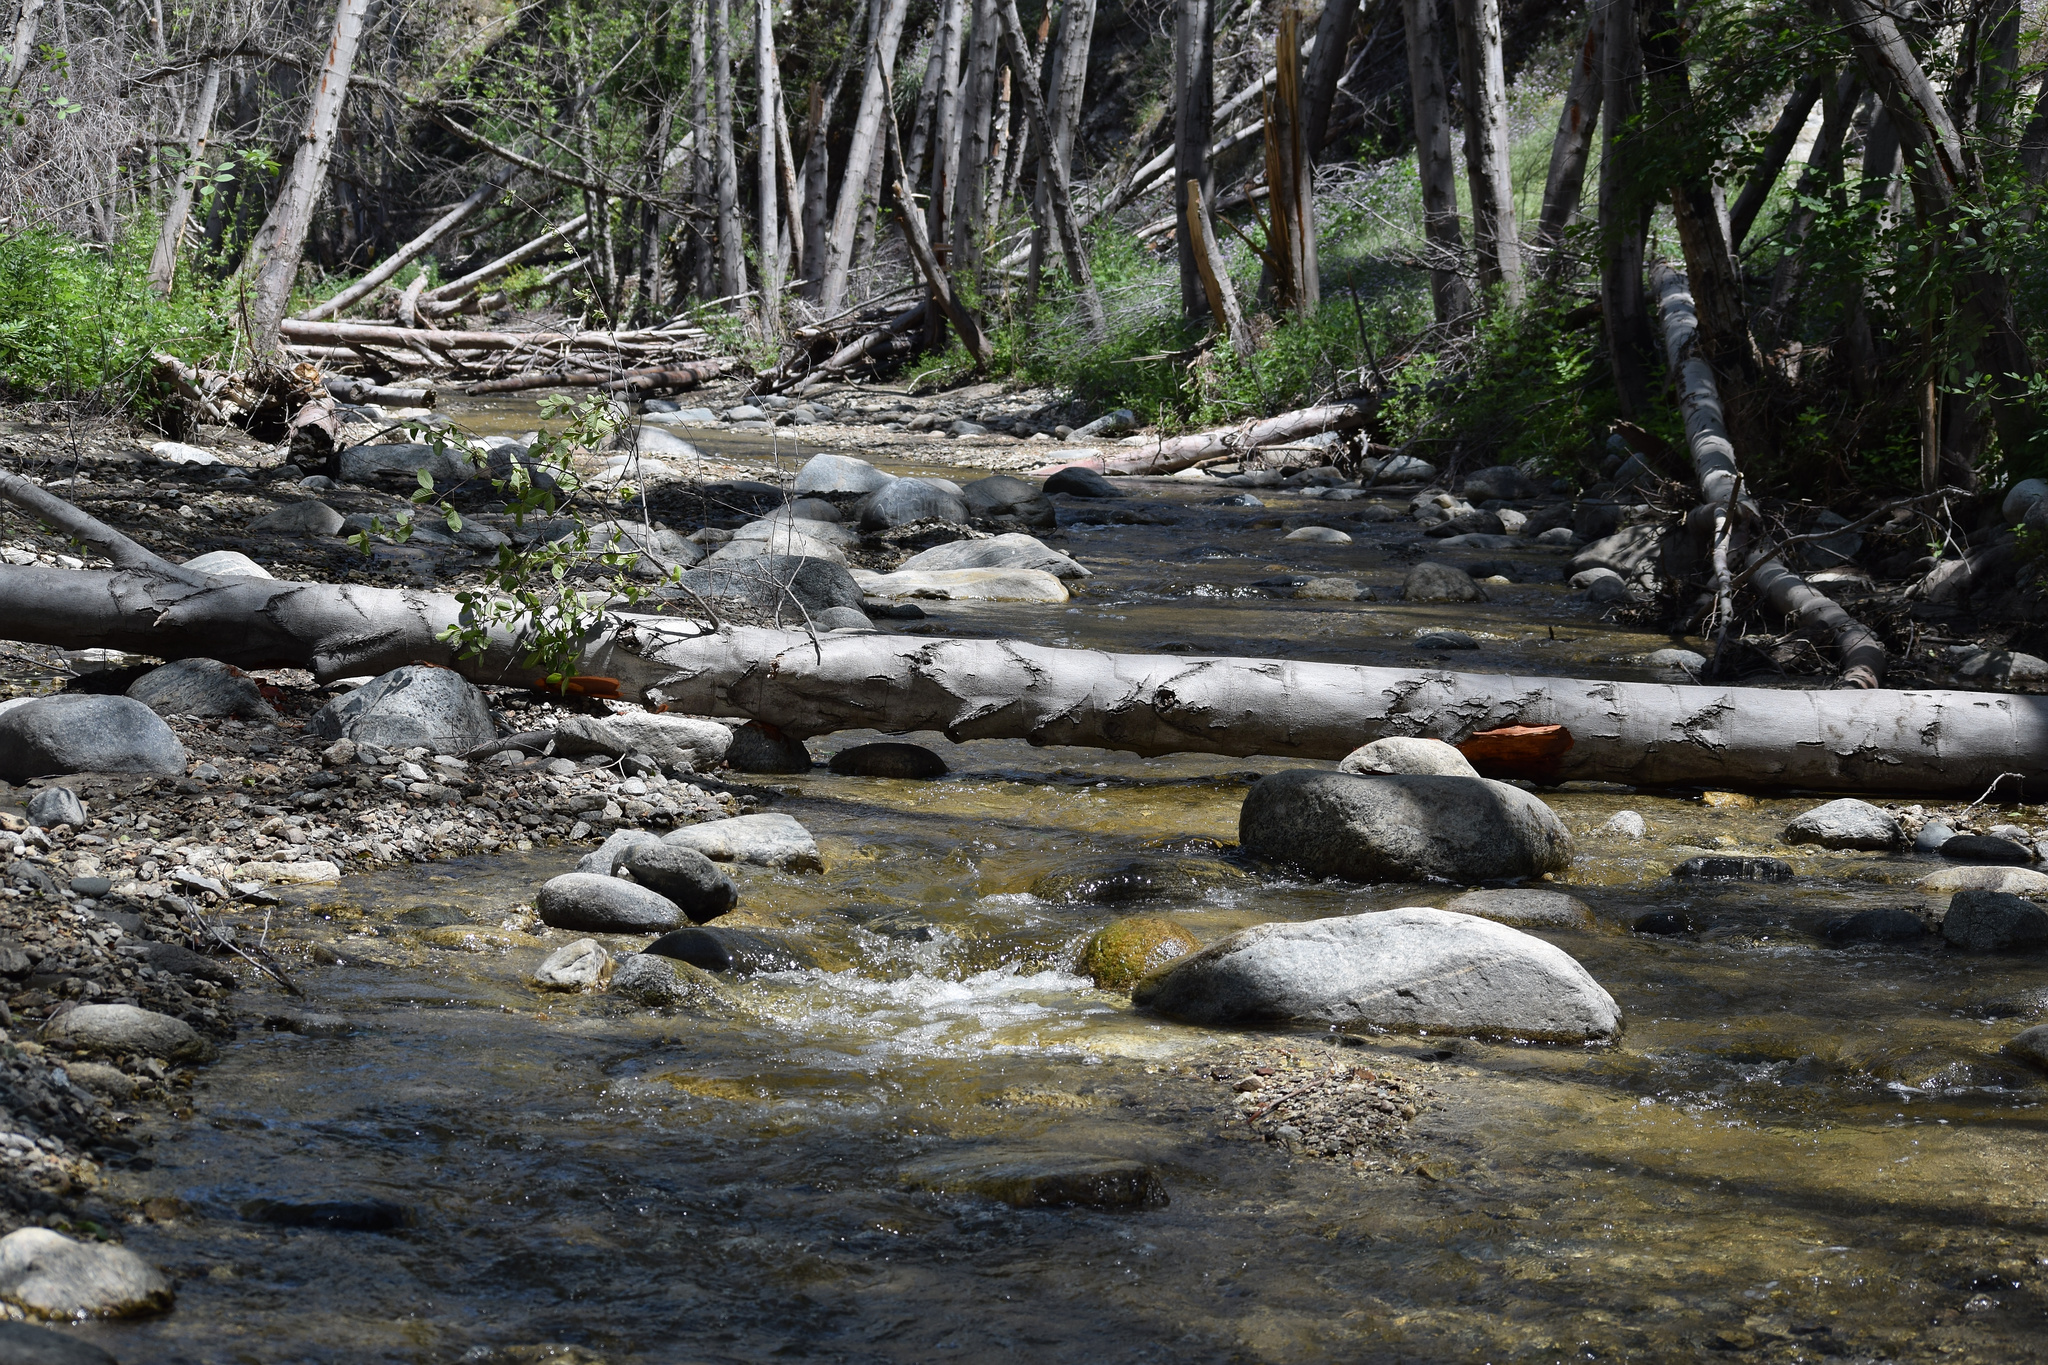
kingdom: Plantae
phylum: Tracheophyta
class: Magnoliopsida
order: Fagales
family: Betulaceae
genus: Alnus
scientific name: Alnus rhombifolia
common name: California alder
